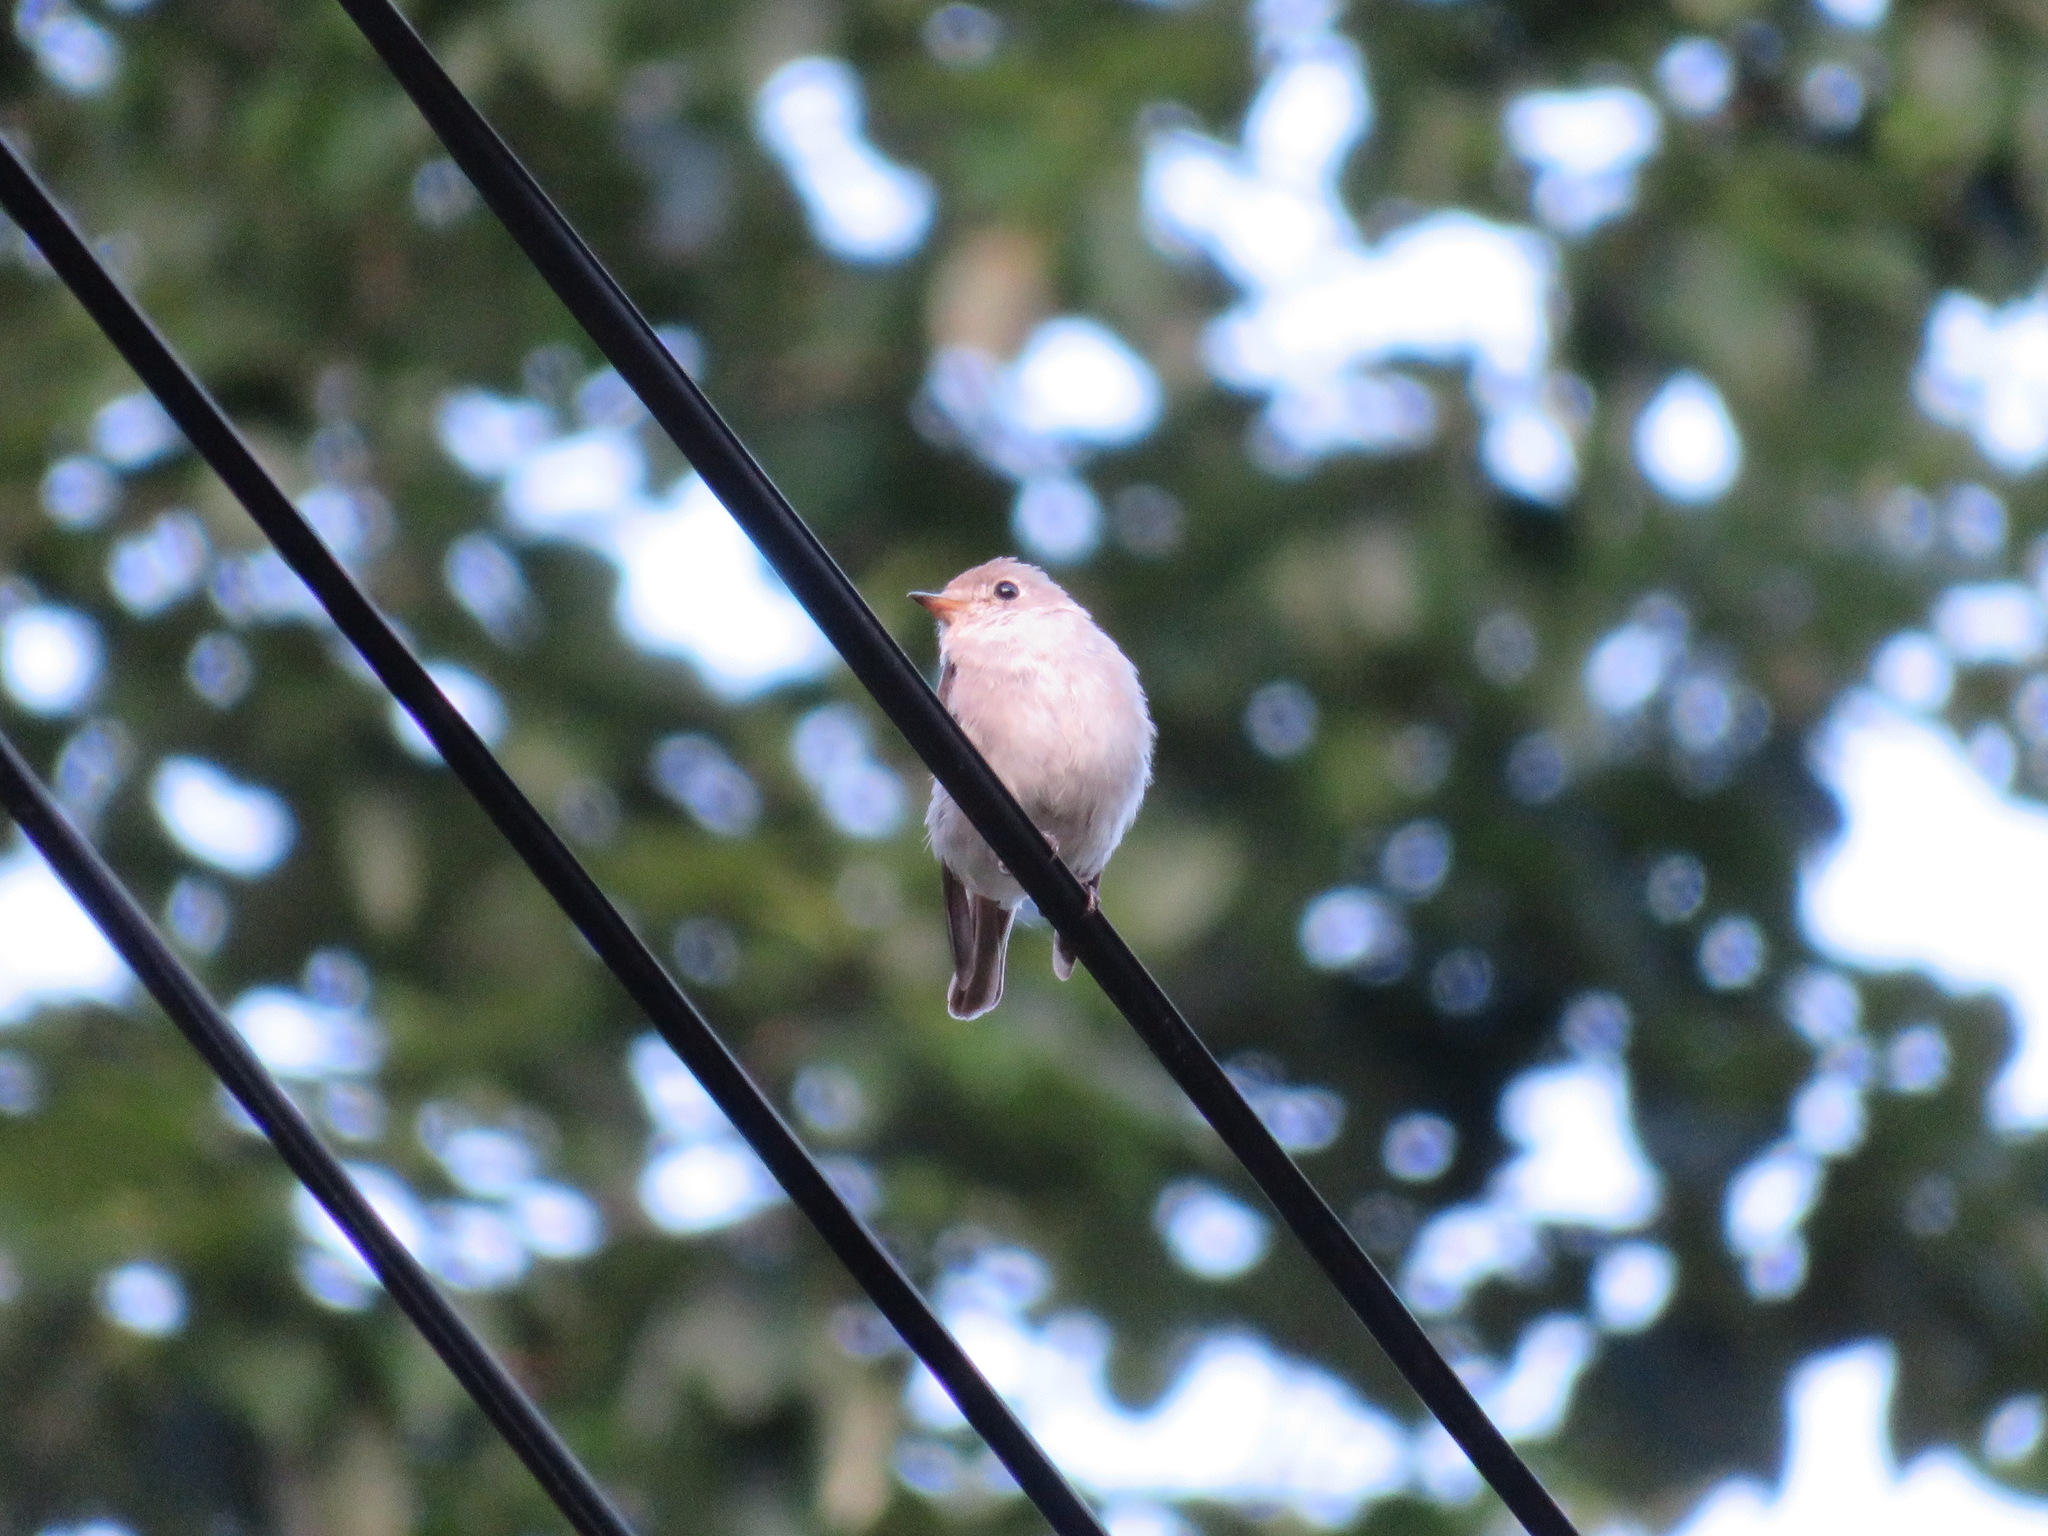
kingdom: Animalia
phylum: Chordata
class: Aves
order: Passeriformes
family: Muscicapidae
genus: Muscicapa
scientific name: Muscicapa latirostris
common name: Asian brown flycatcher
